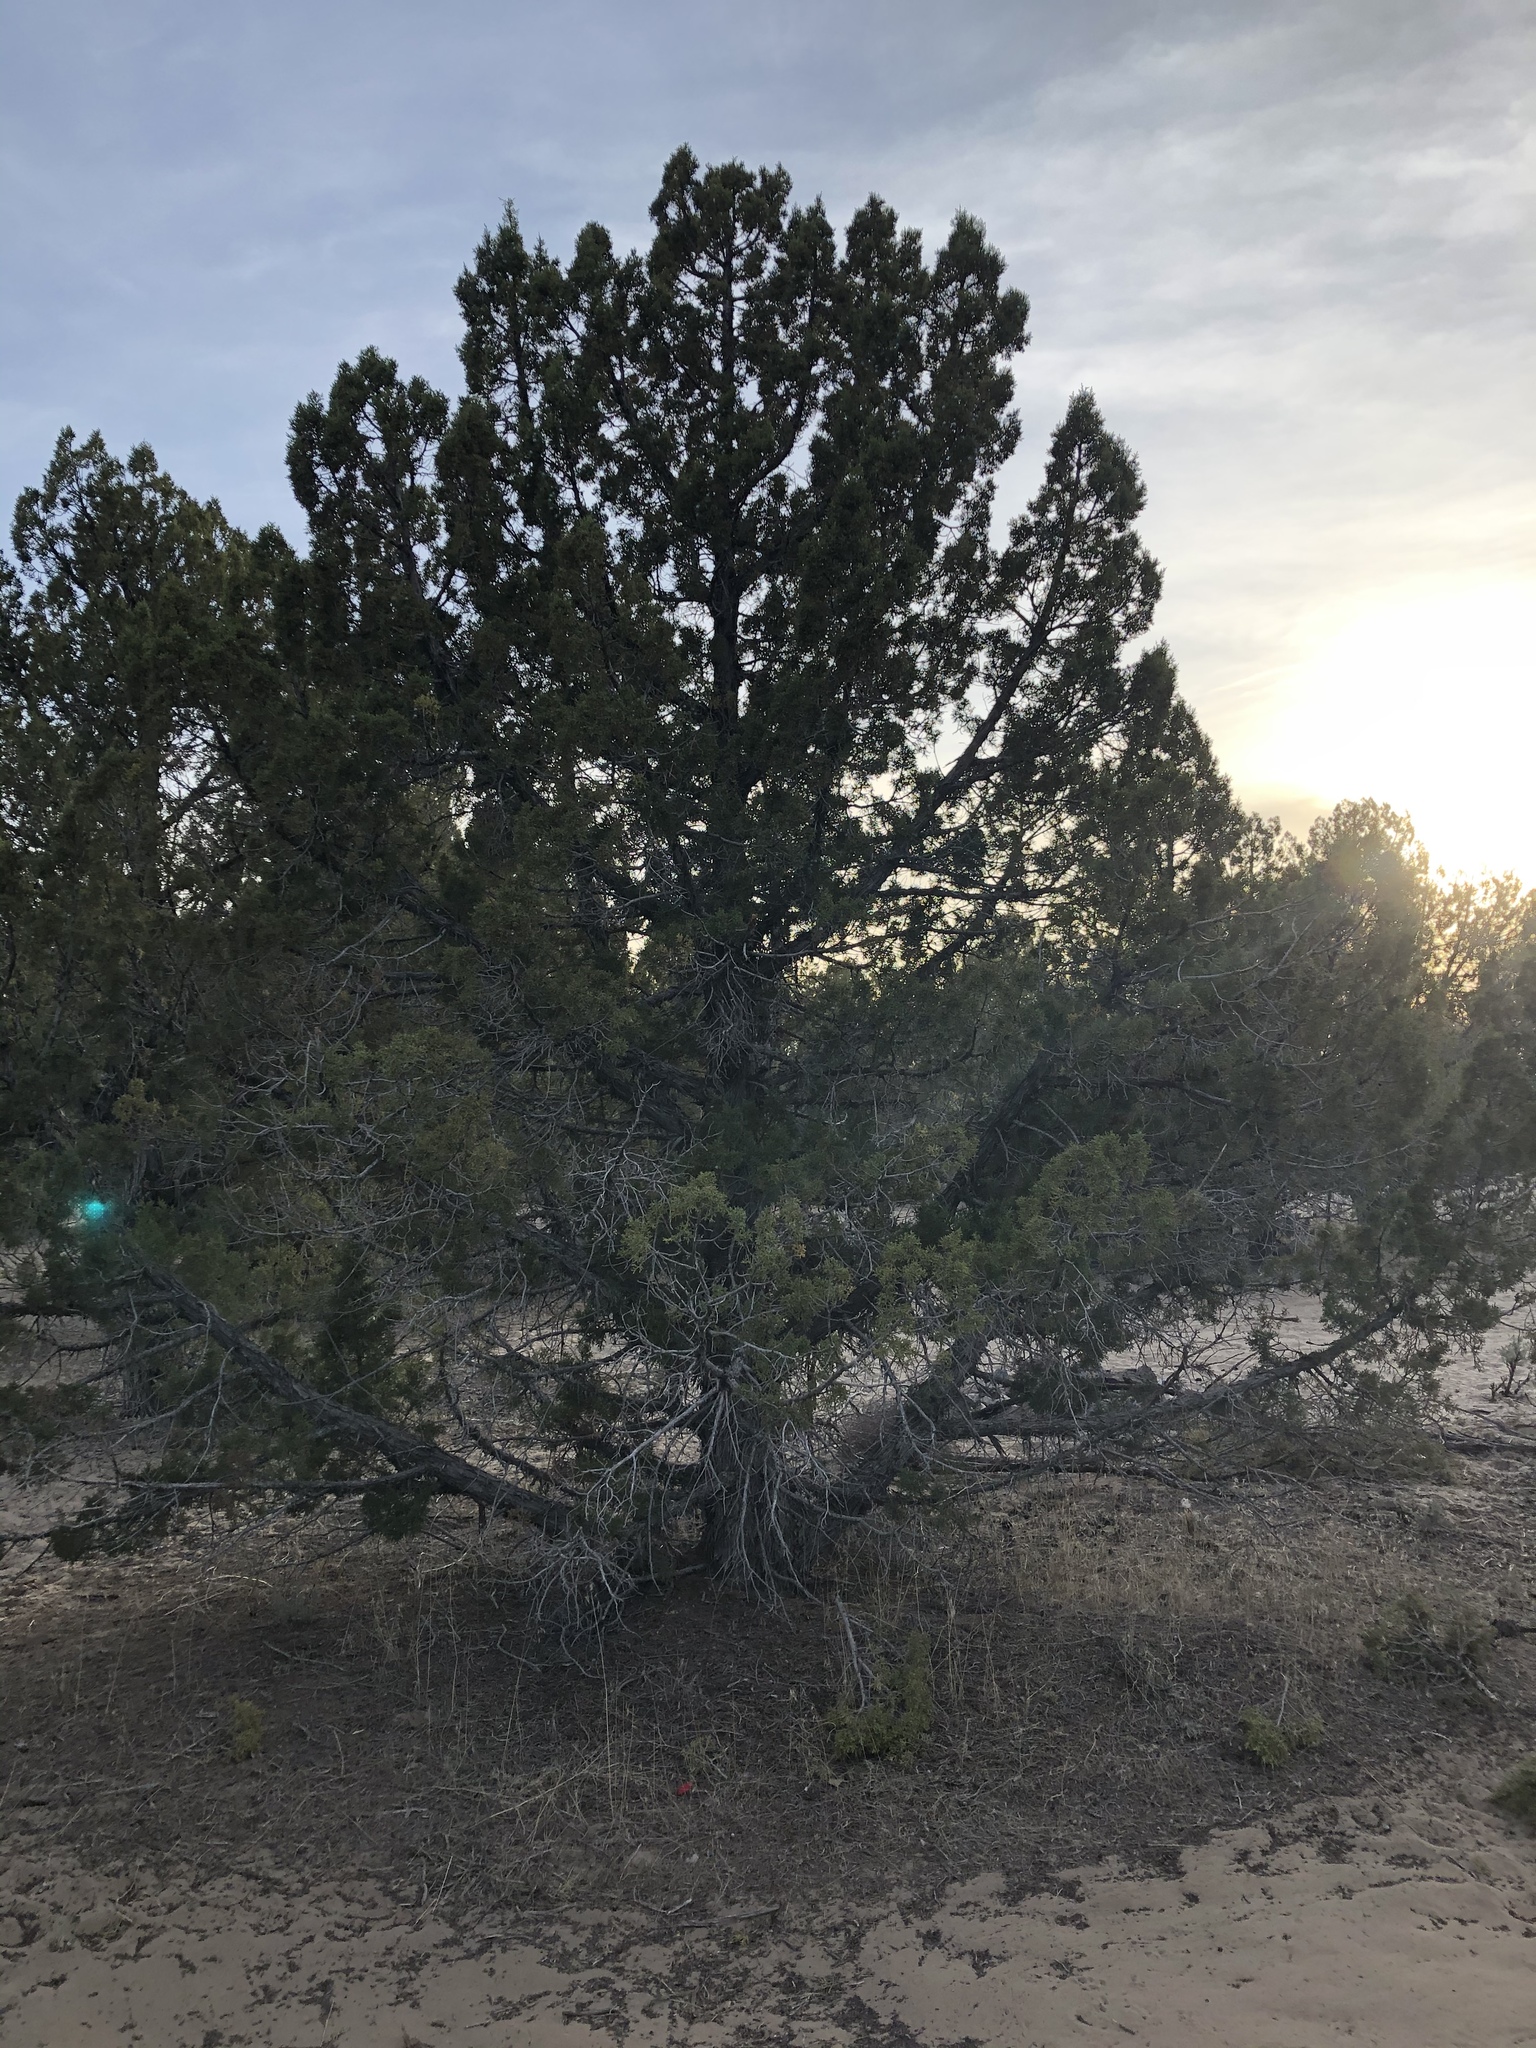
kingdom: Plantae
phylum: Tracheophyta
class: Pinopsida
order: Pinales
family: Cupressaceae
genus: Juniperus
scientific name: Juniperus osteosperma
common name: Utah juniper
